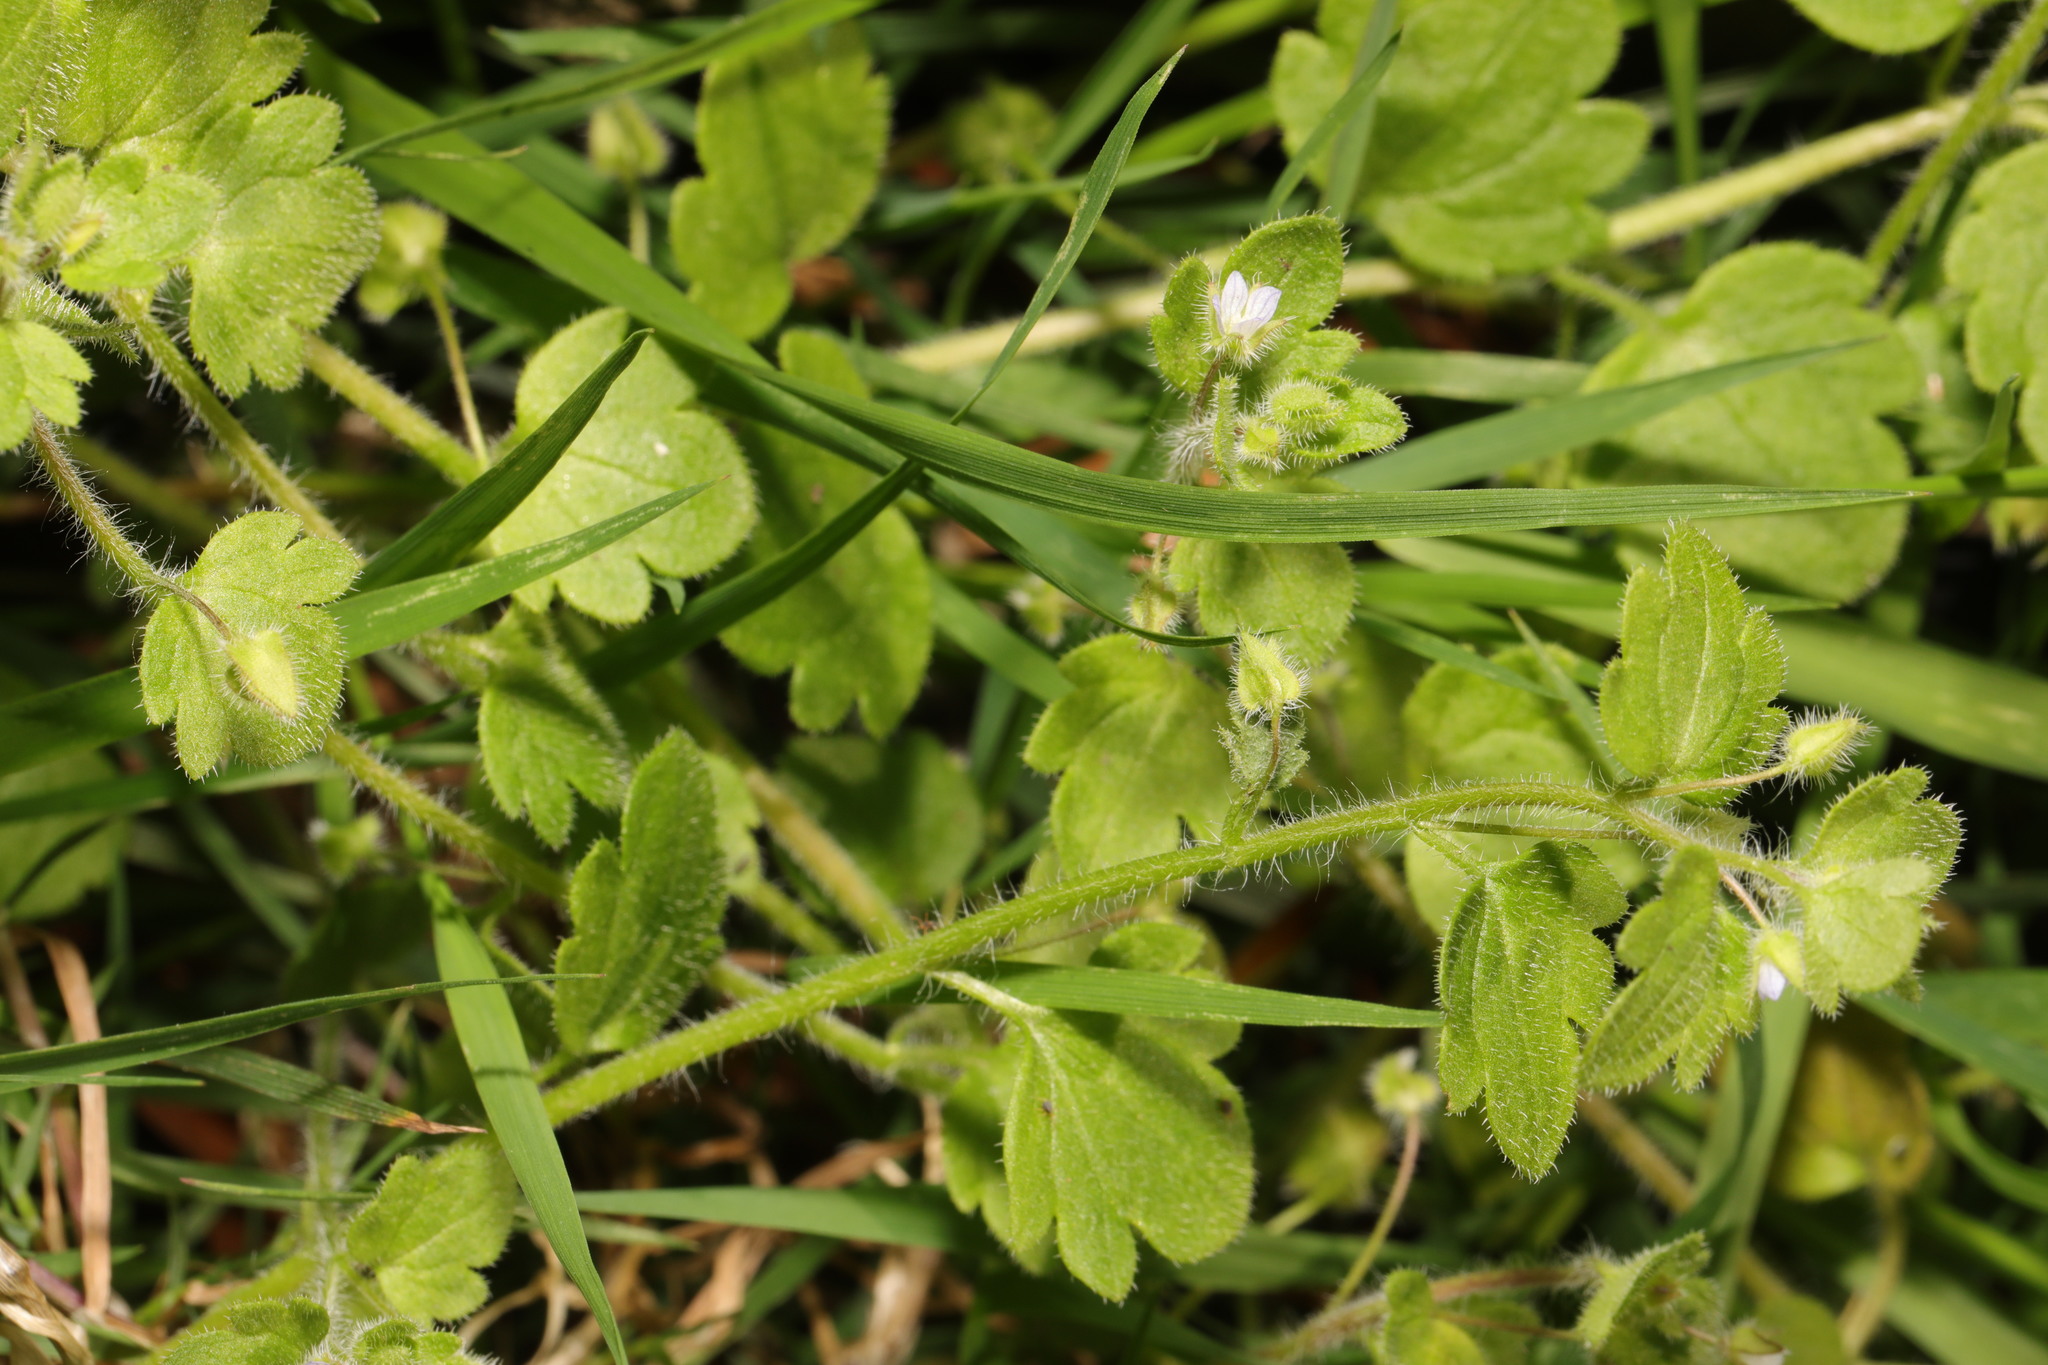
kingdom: Plantae
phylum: Tracheophyta
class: Magnoliopsida
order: Lamiales
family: Plantaginaceae
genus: Veronica
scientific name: Veronica hederifolia
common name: Ivy-leaved speedwell
